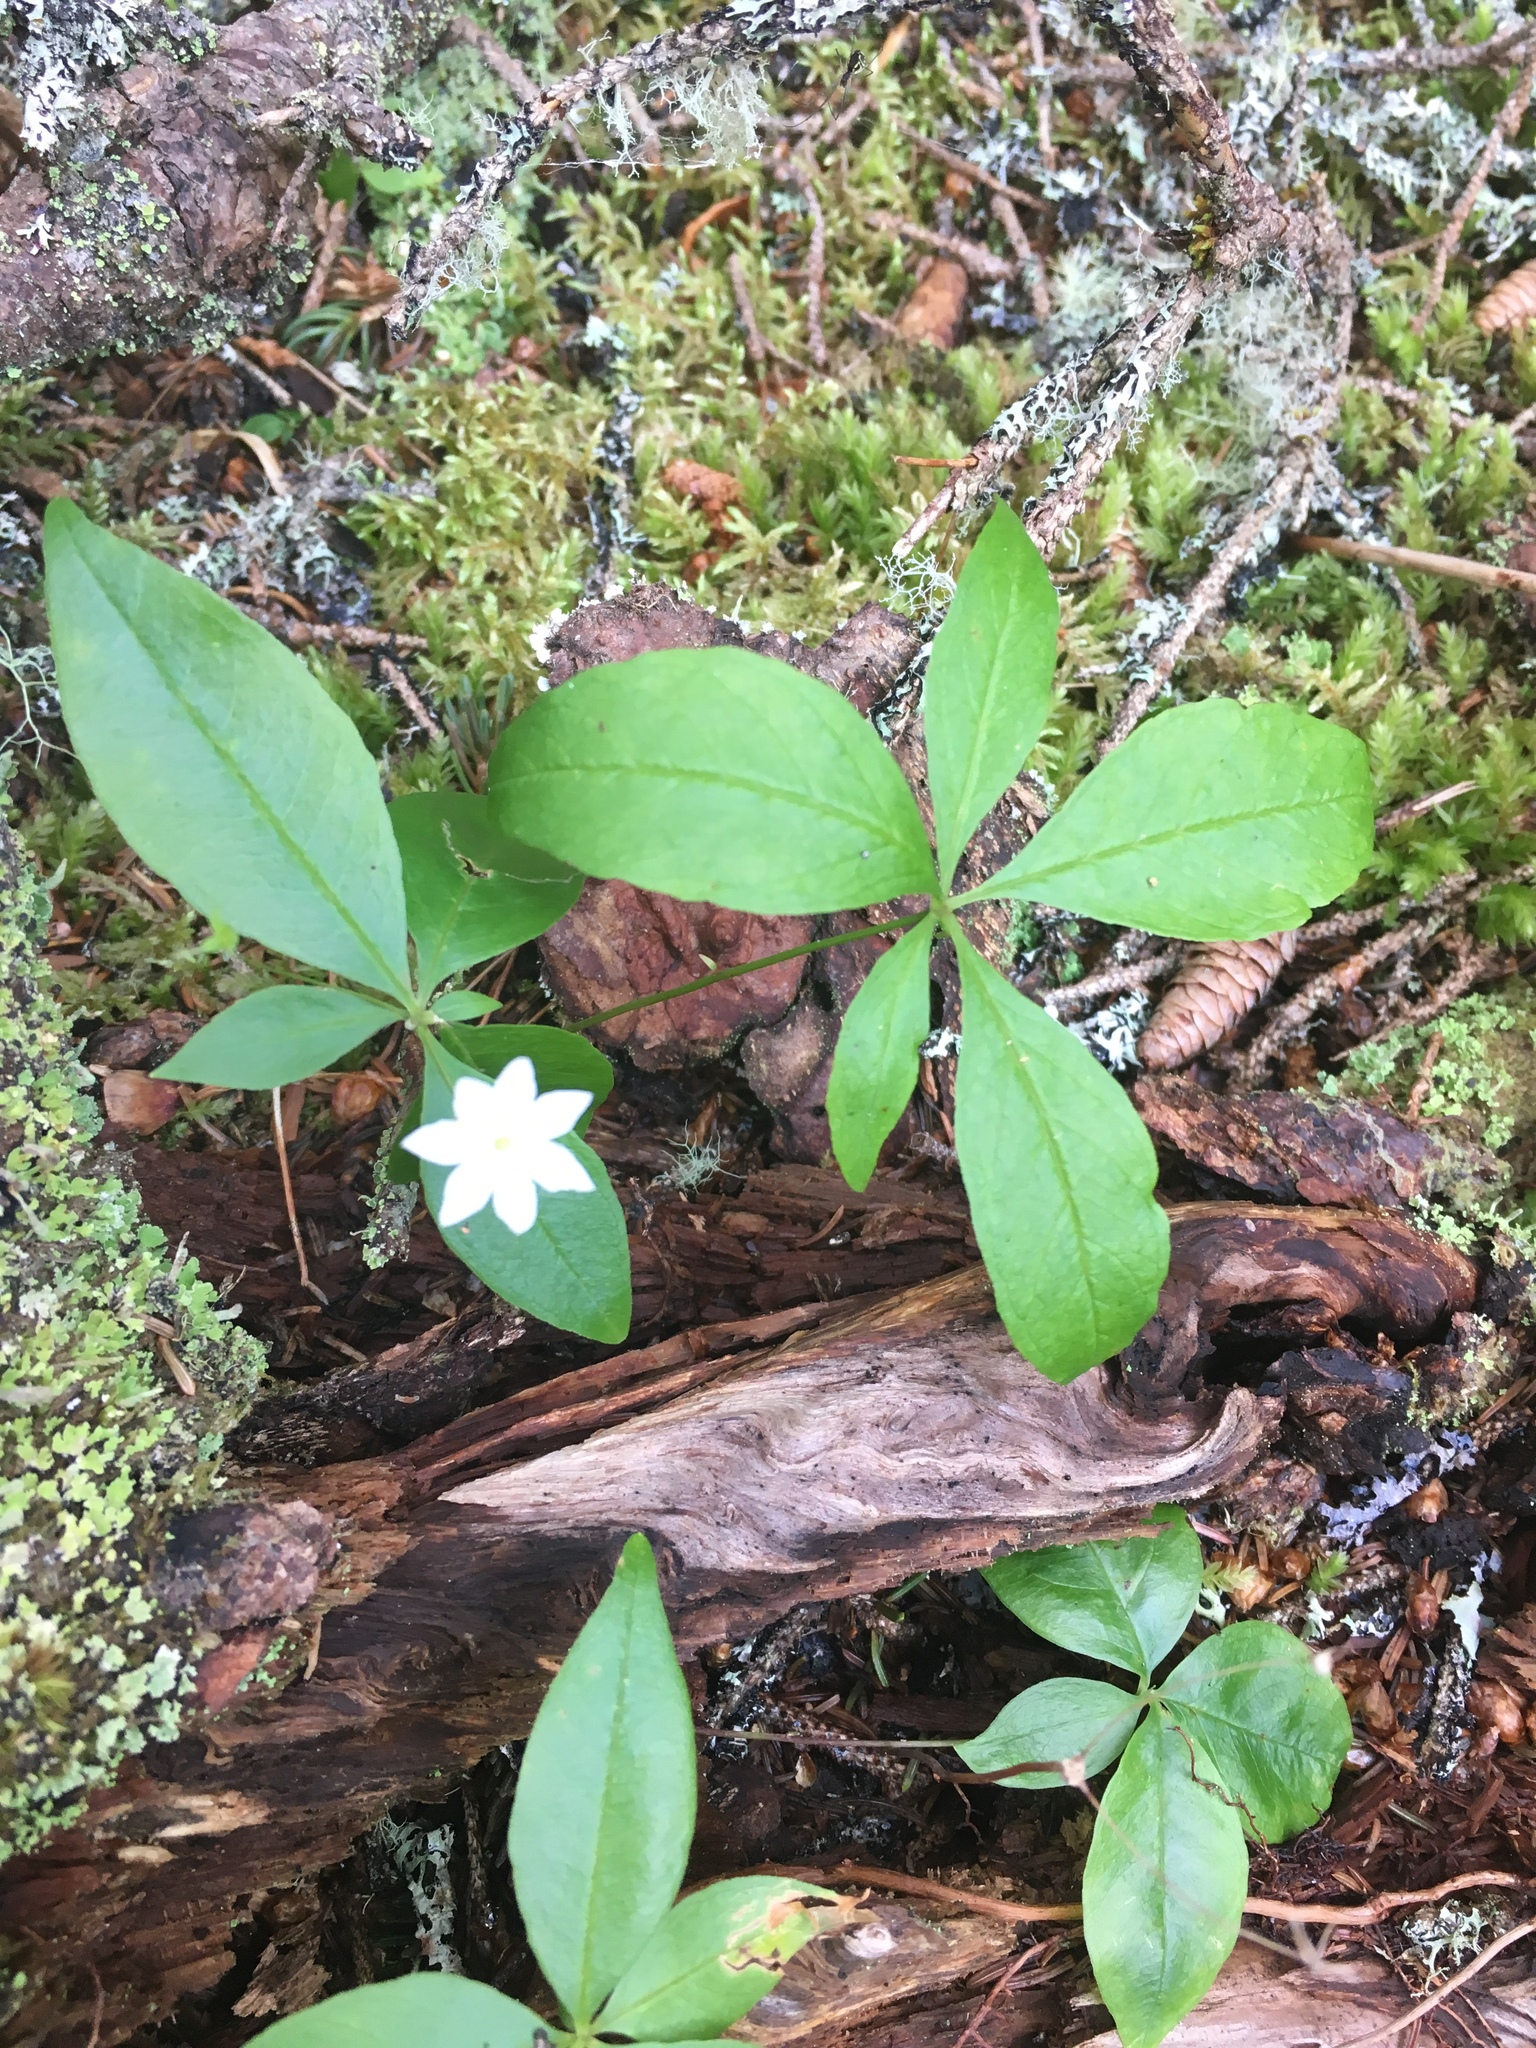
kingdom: Plantae
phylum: Tracheophyta
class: Magnoliopsida
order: Ericales
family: Primulaceae
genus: Lysimachia
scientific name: Lysimachia borealis
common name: American starflower
